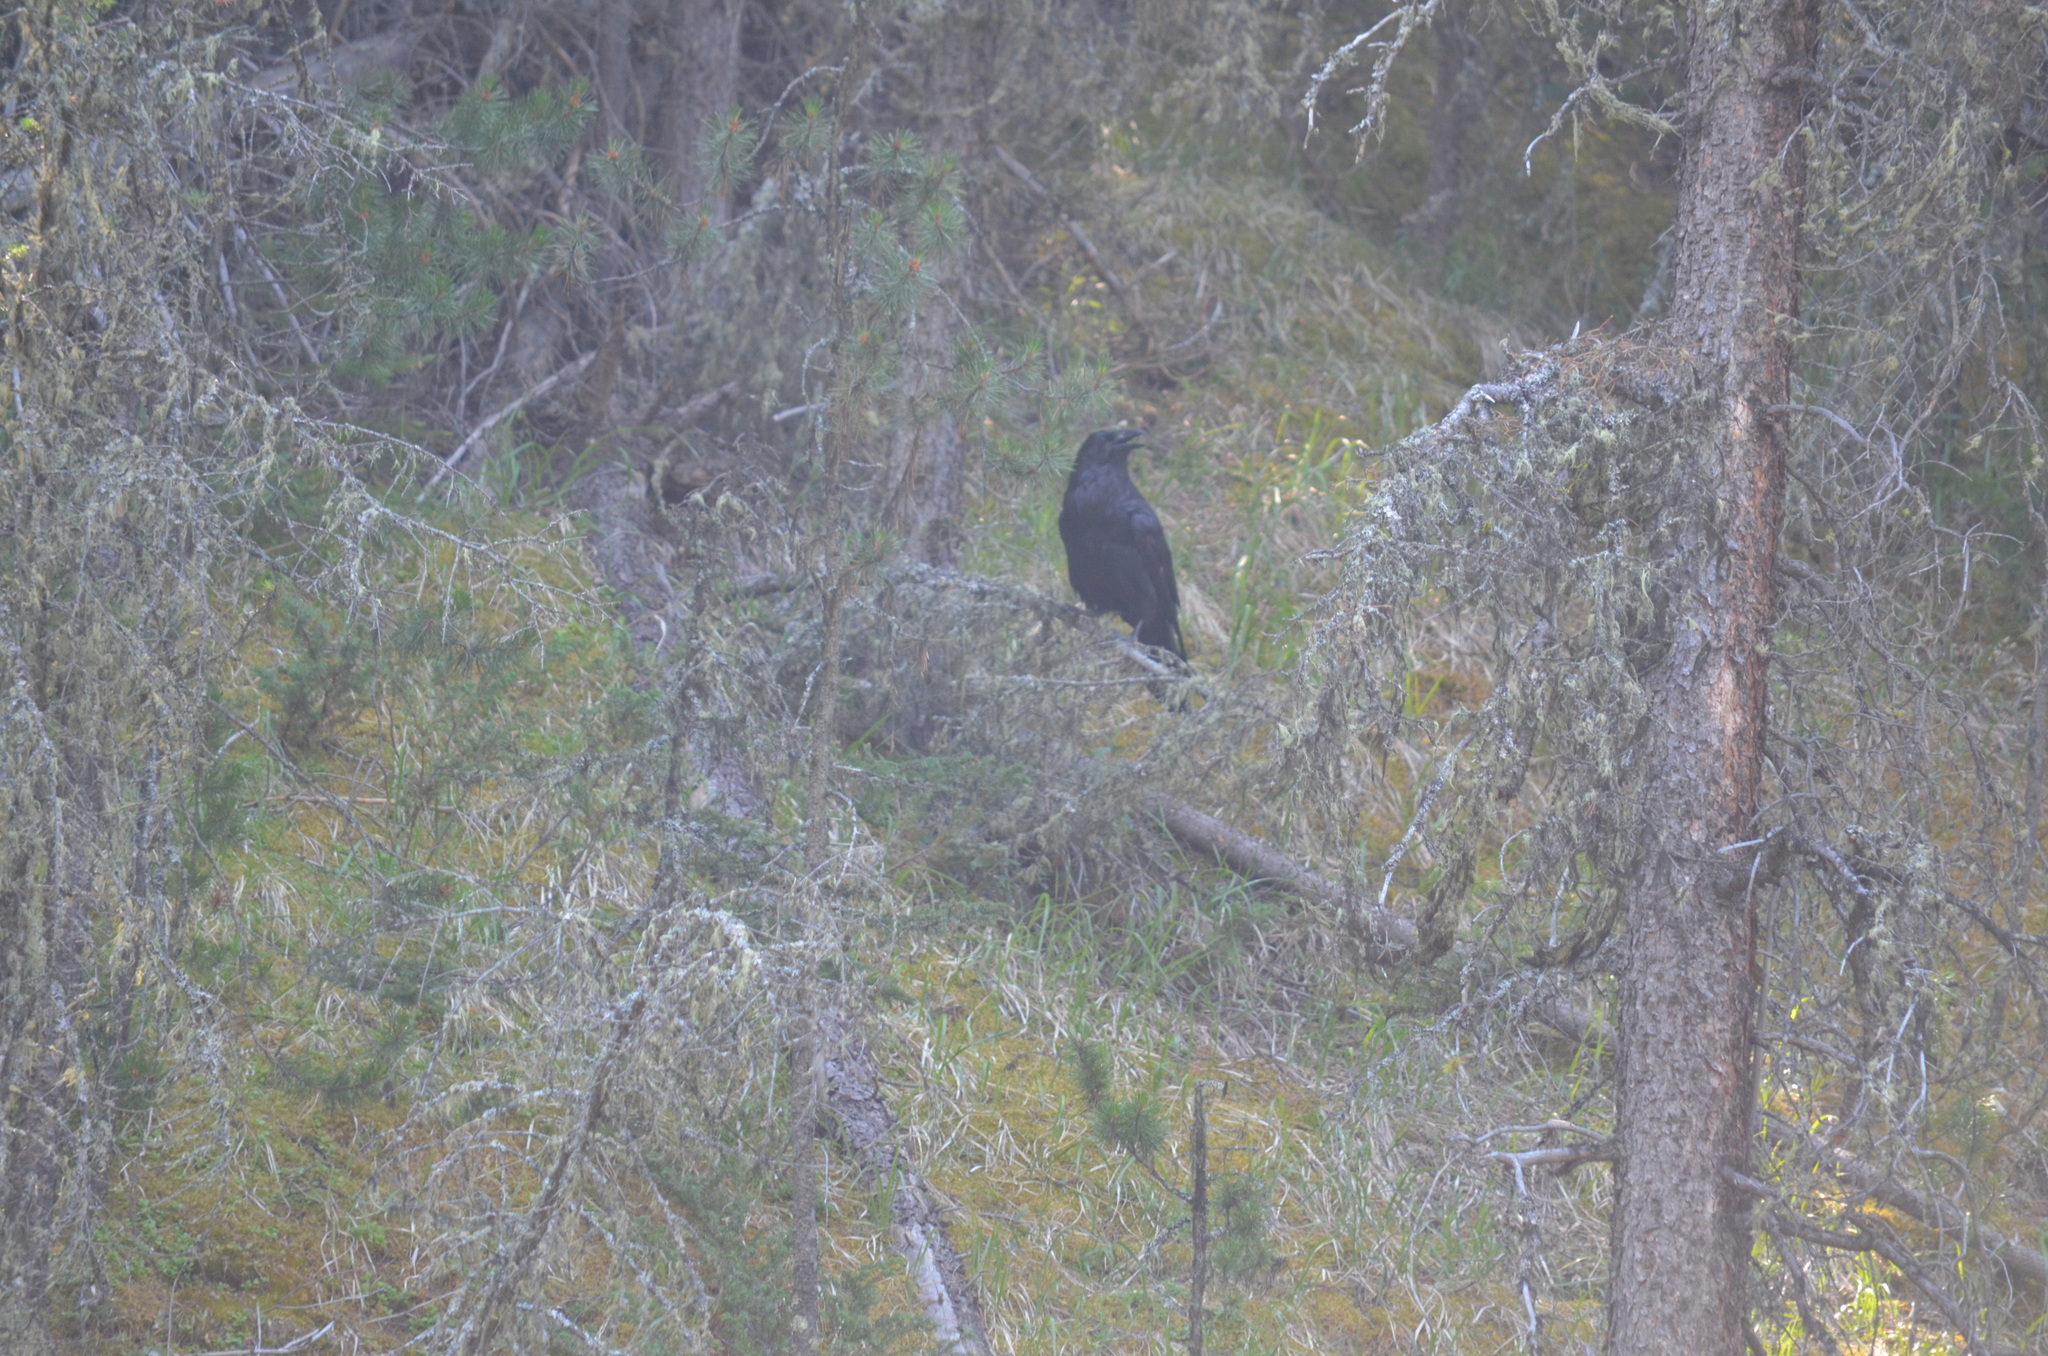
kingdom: Animalia
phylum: Chordata
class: Aves
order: Passeriformes
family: Corvidae
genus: Corvus
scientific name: Corvus corax
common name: Common raven
